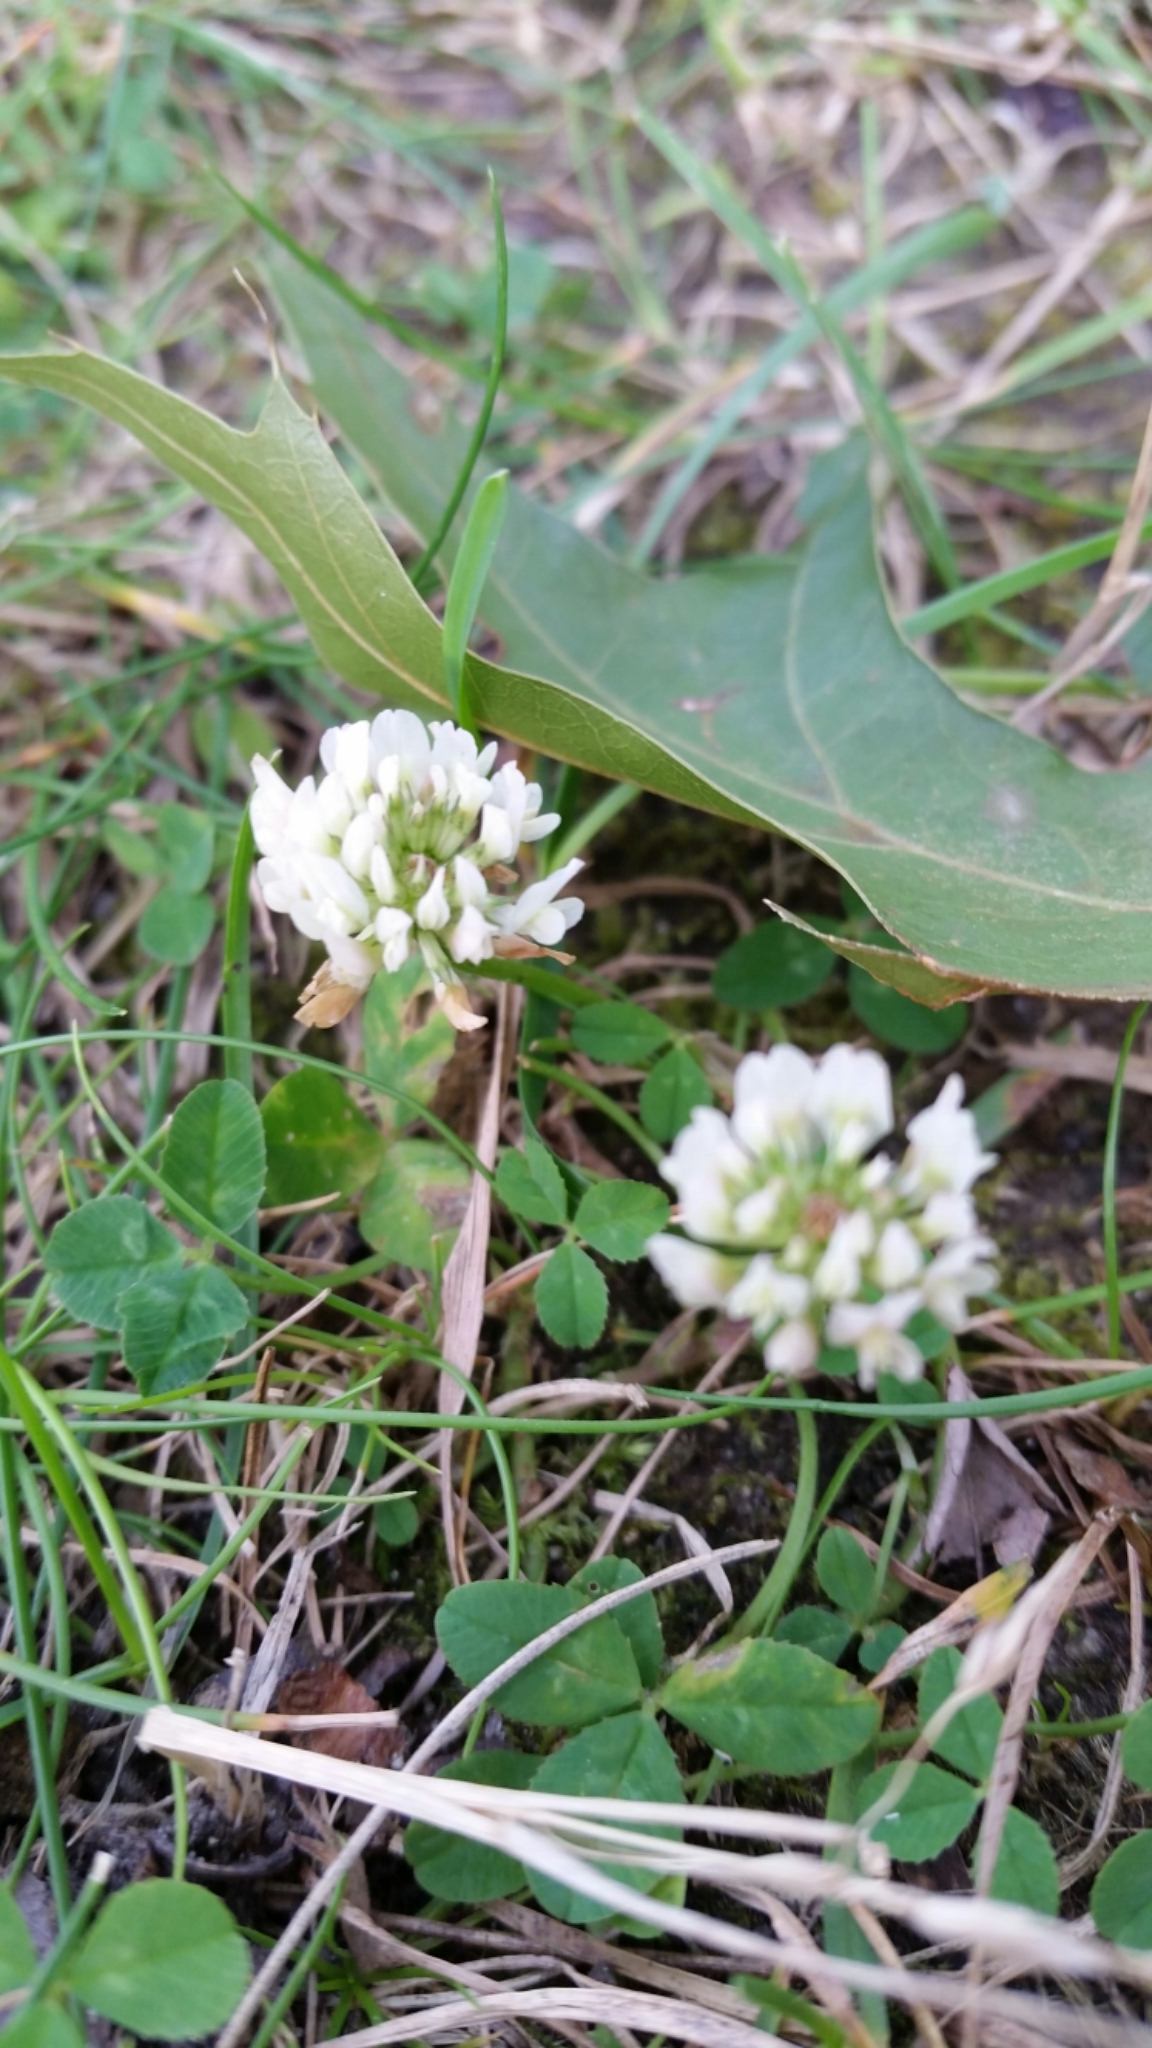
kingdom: Plantae
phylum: Tracheophyta
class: Magnoliopsida
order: Fabales
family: Fabaceae
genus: Trifolium
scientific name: Trifolium repens
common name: White clover
